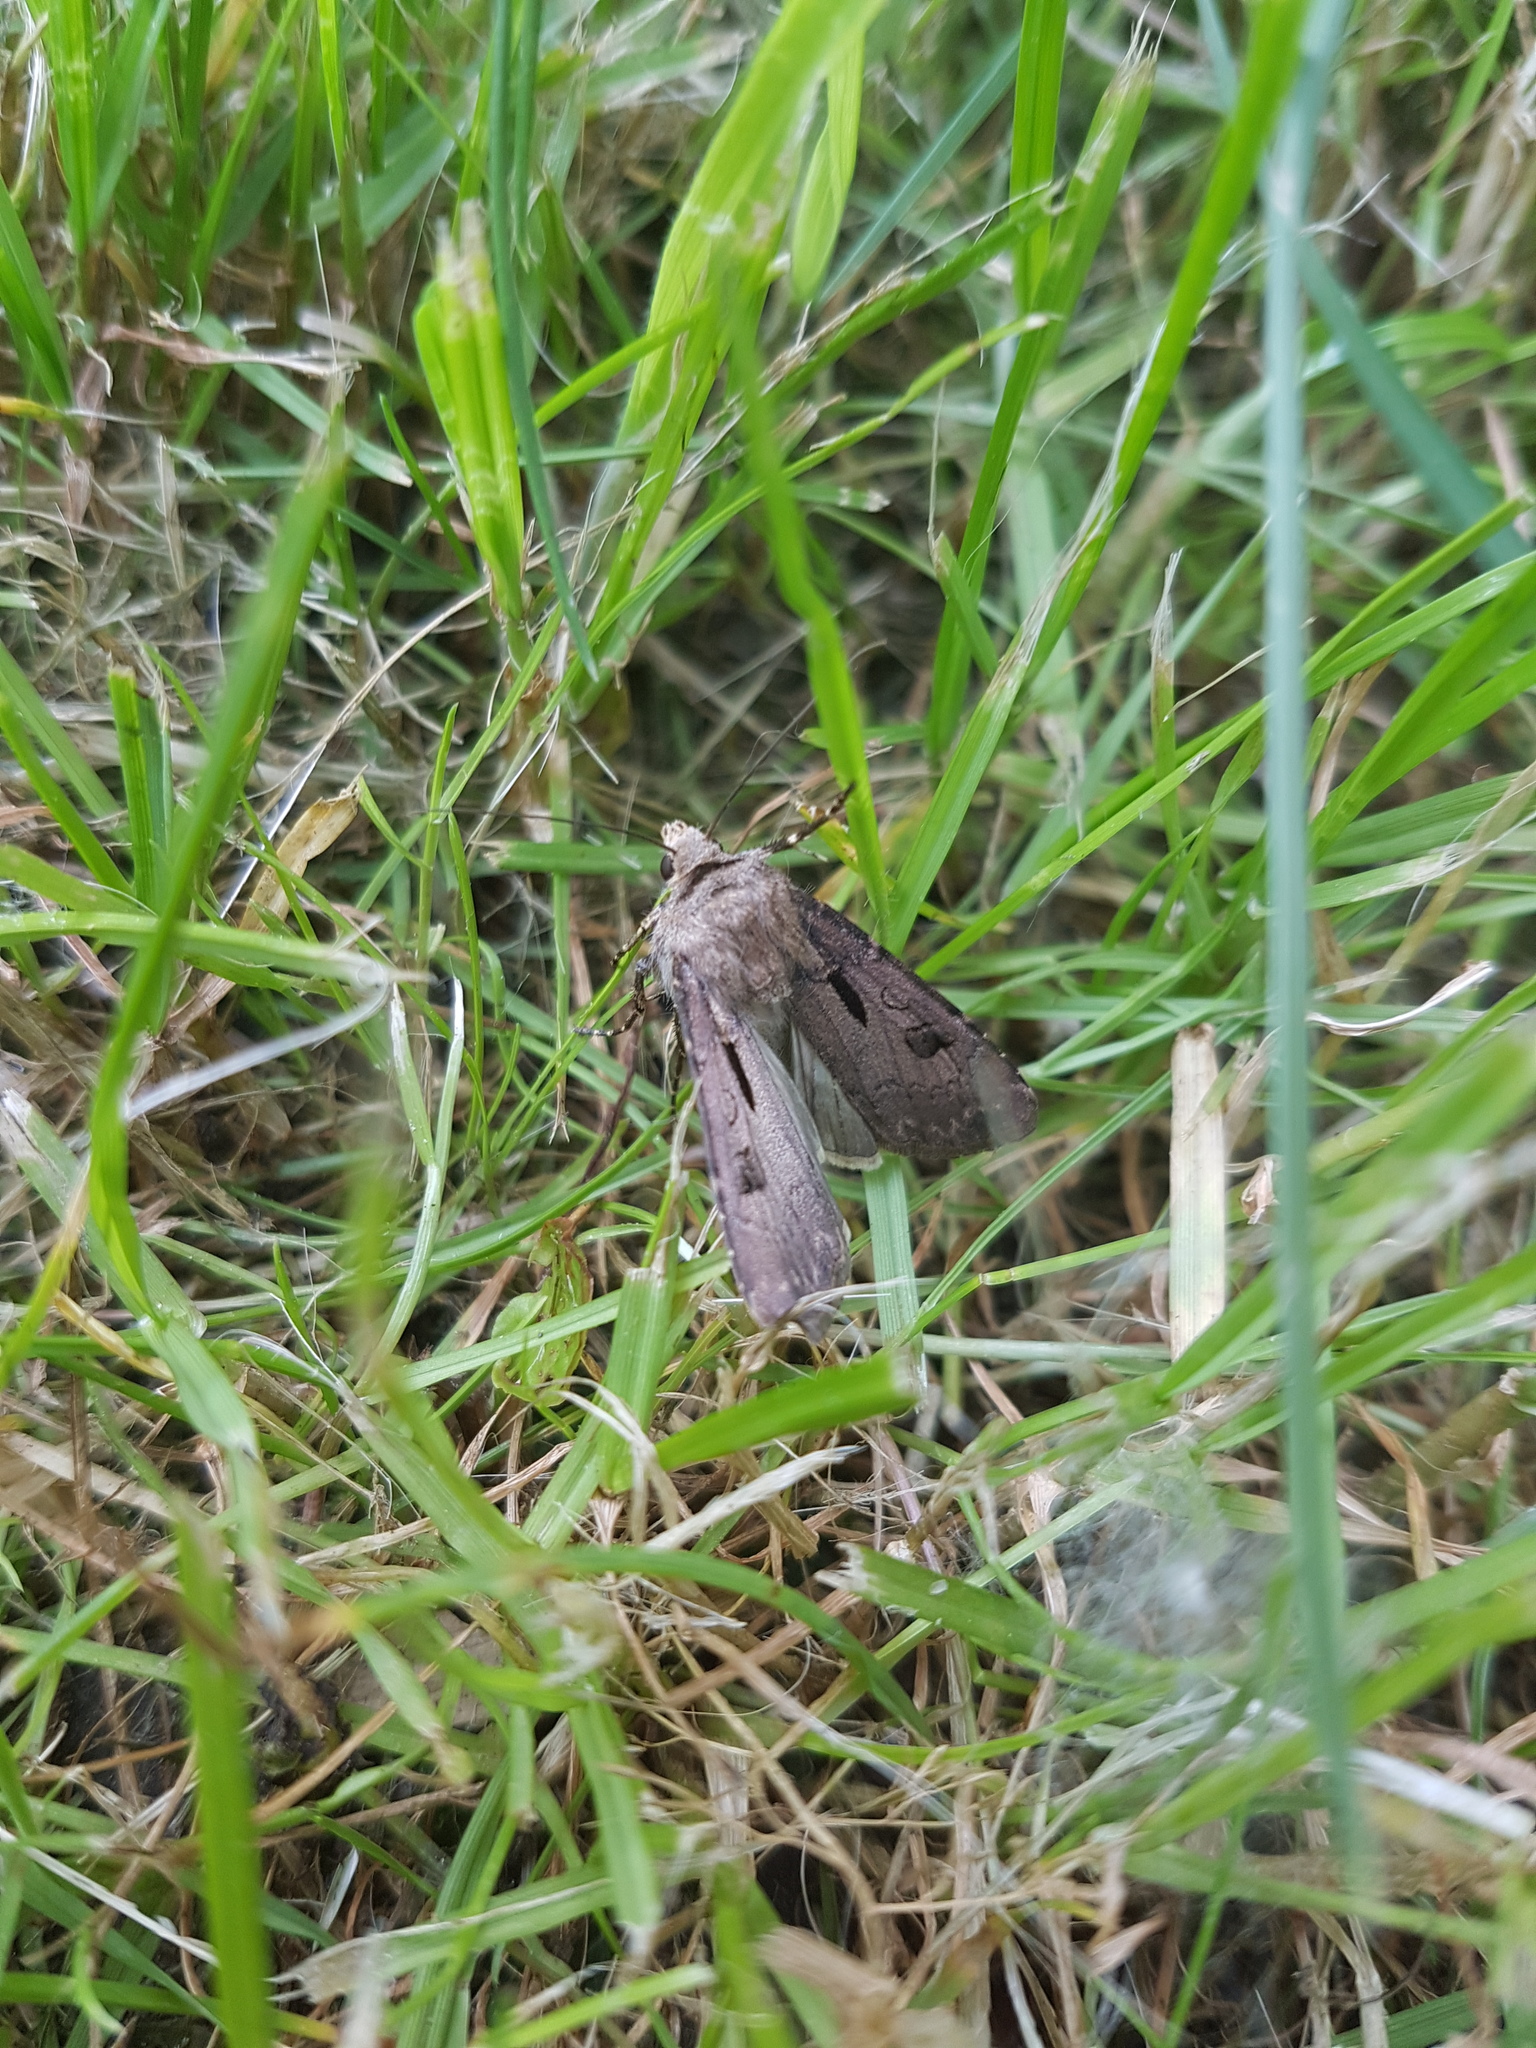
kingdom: Animalia
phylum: Arthropoda
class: Insecta
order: Lepidoptera
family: Noctuidae
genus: Agrotis
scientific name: Agrotis exclamationis
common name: Heart and dart
